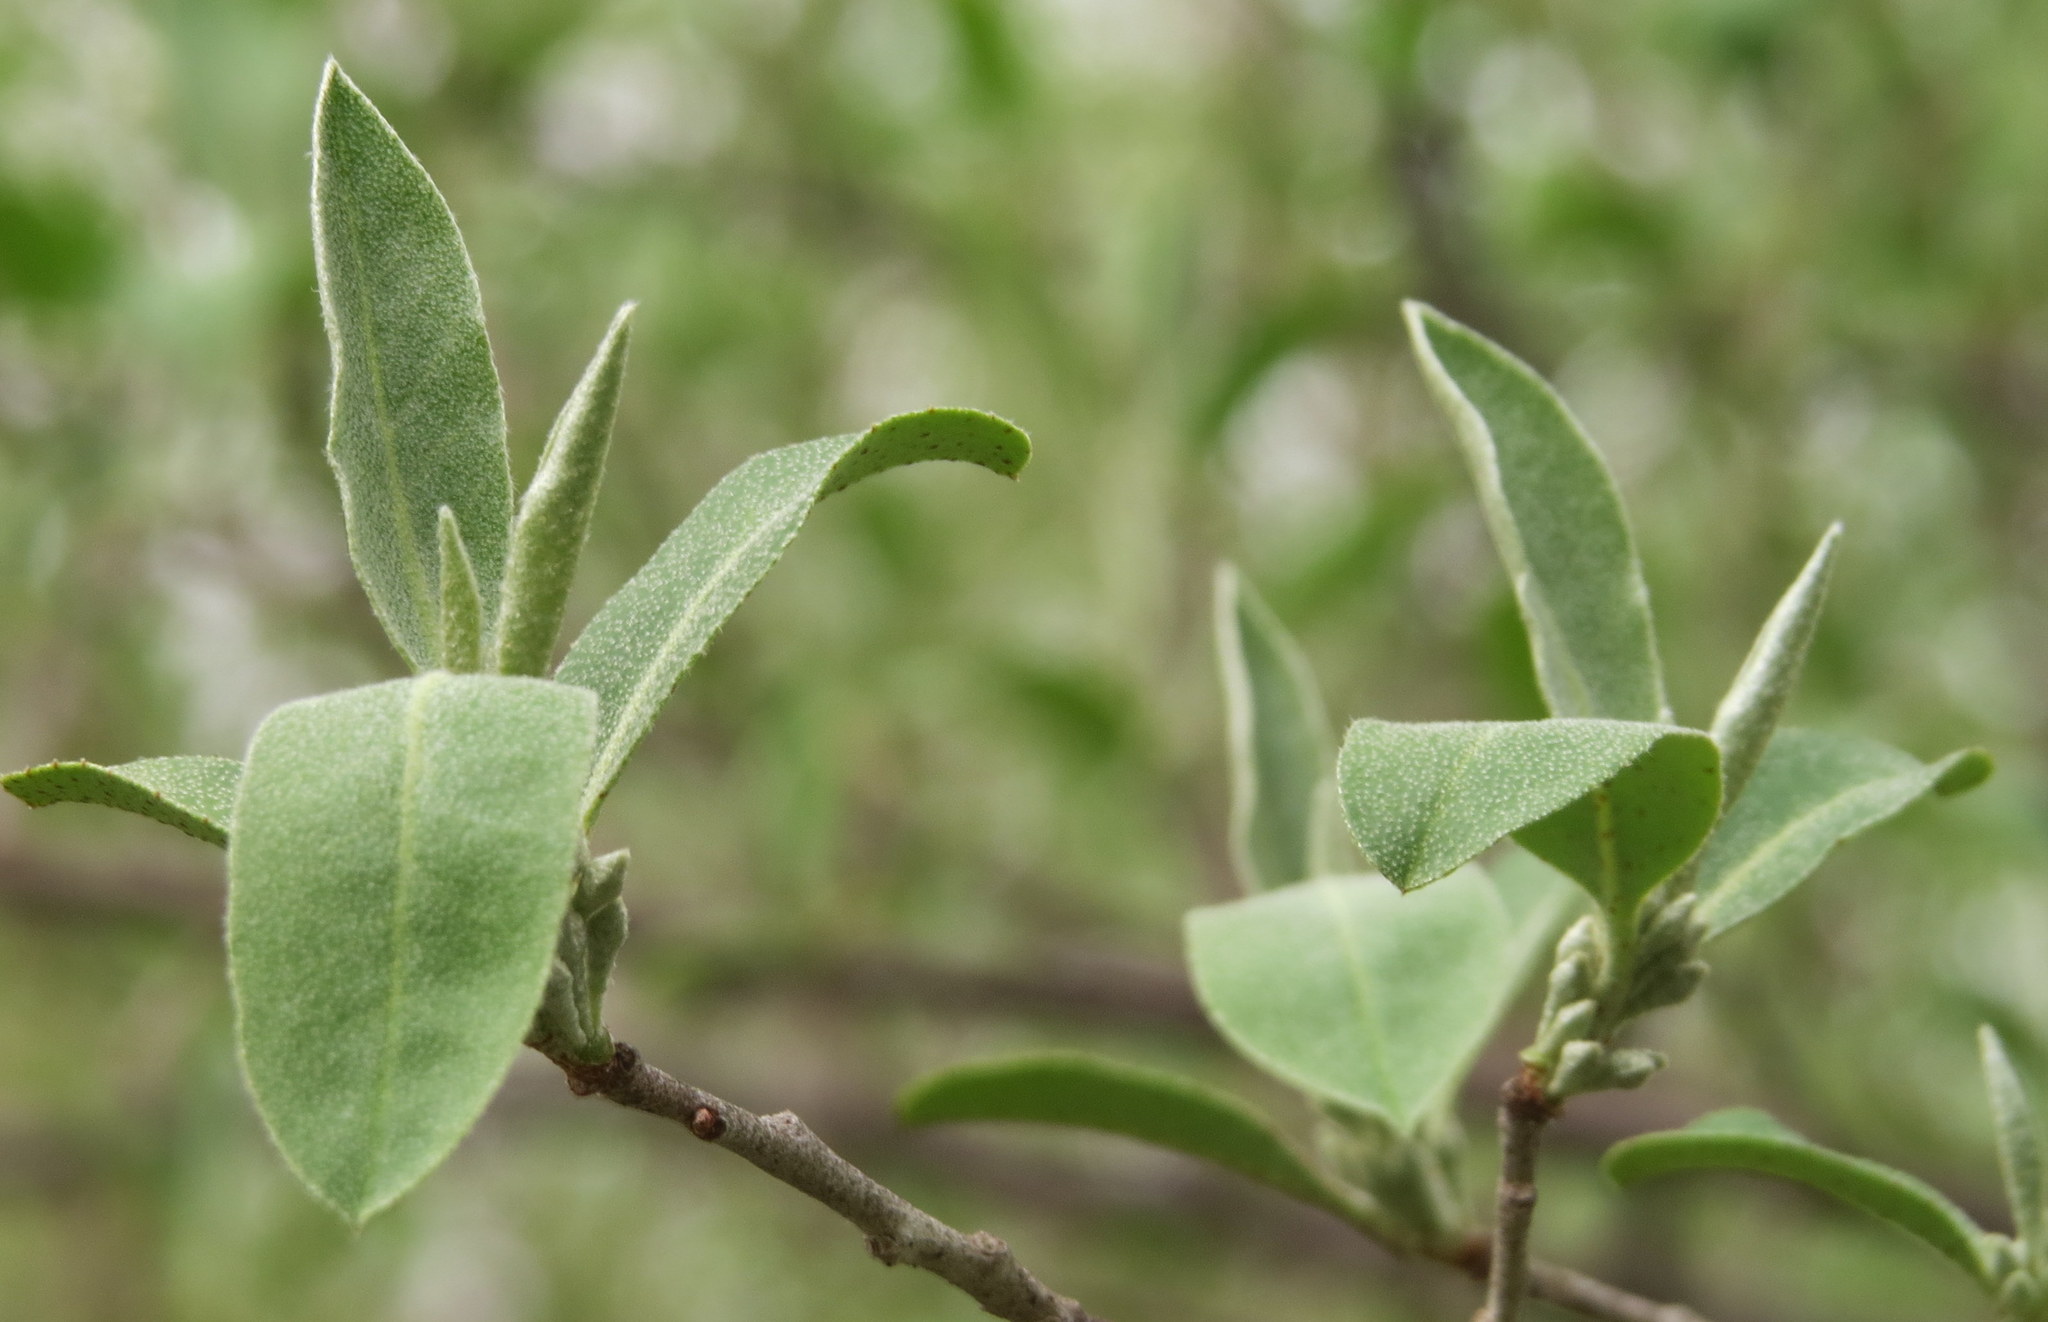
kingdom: Plantae
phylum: Tracheophyta
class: Magnoliopsida
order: Rosales
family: Elaeagnaceae
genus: Elaeagnus
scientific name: Elaeagnus umbellata
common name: Autumn olive
